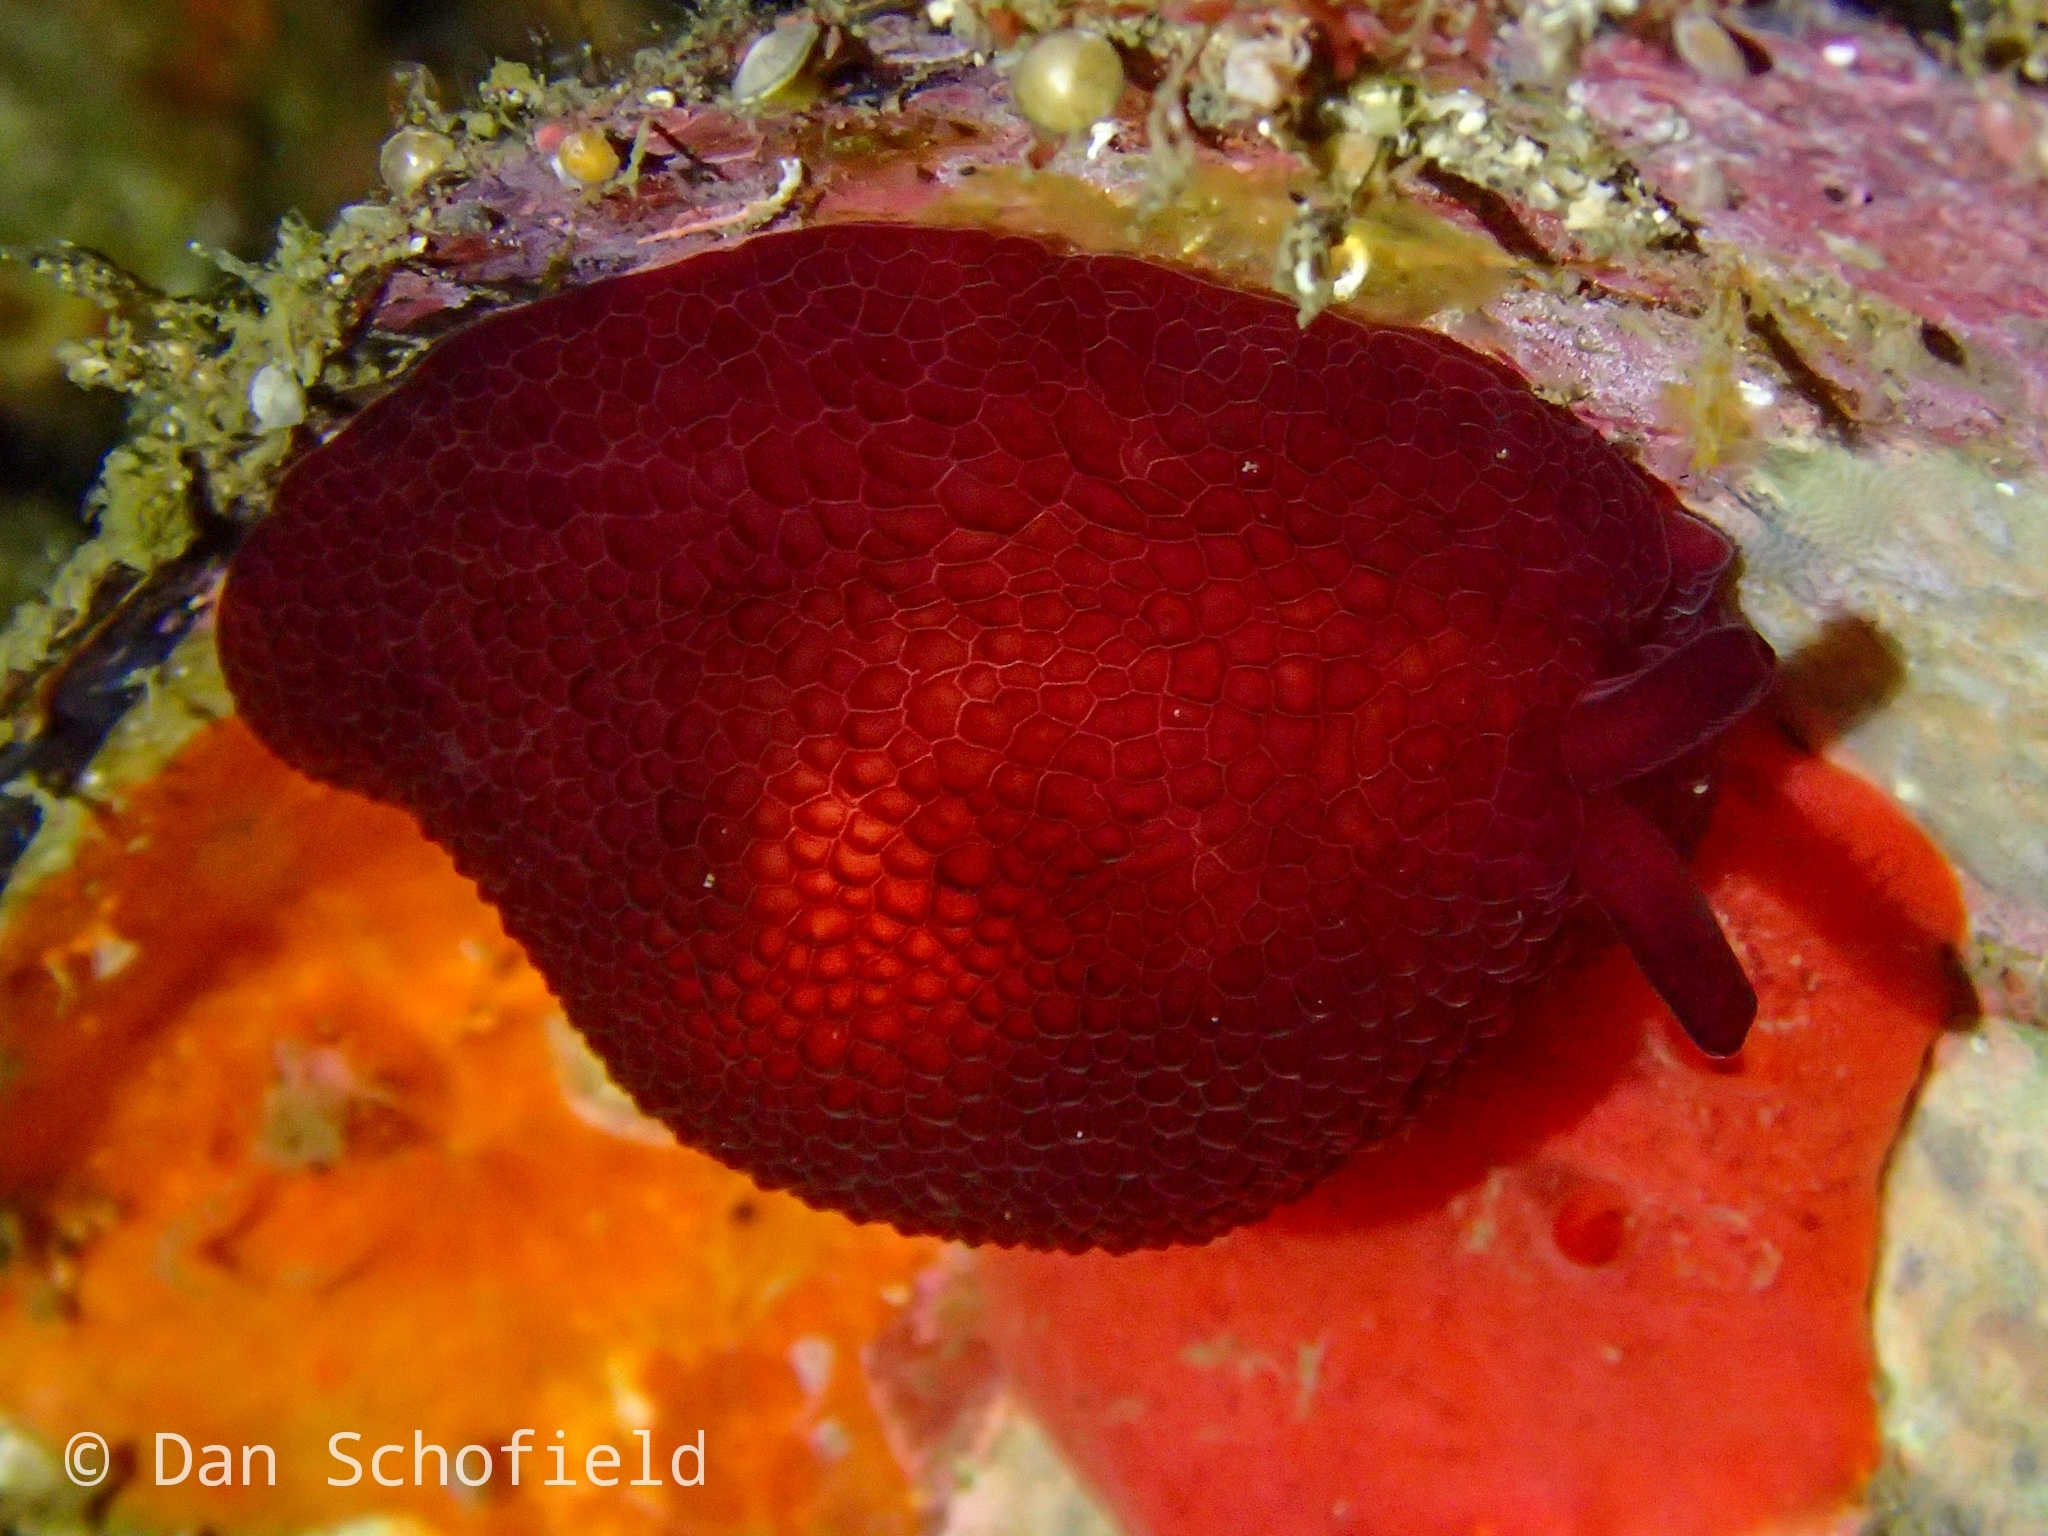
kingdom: Animalia
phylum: Mollusca
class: Gastropoda
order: Pleurobranchida
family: Pleurobranchidae
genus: Pleurobranchus
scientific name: Pleurobranchus peronii
